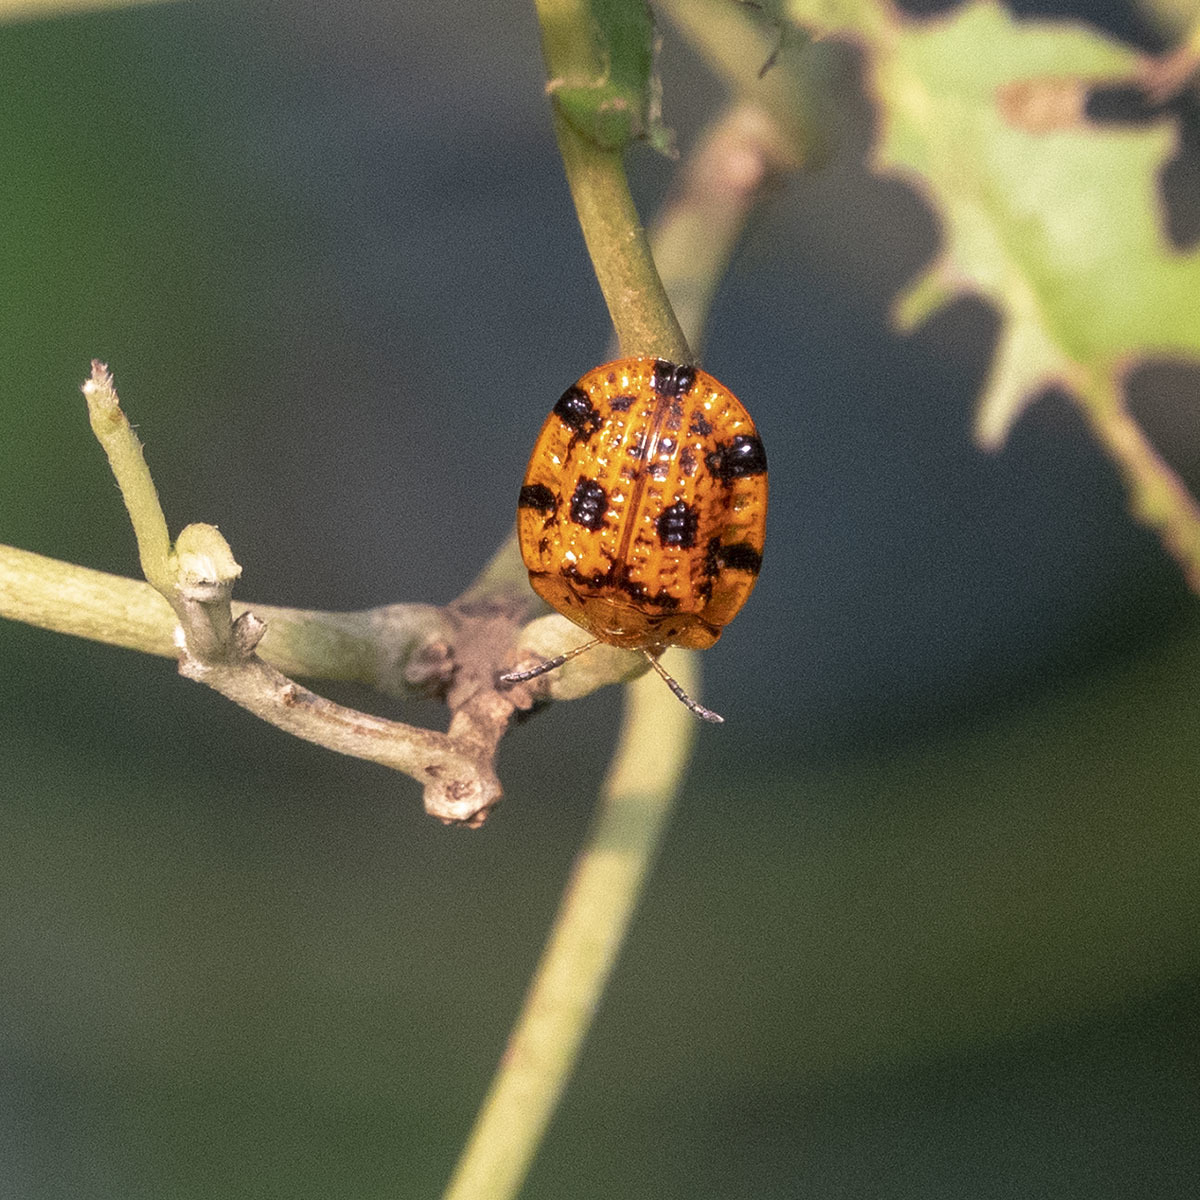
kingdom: Animalia
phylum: Arthropoda
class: Insecta
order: Coleoptera
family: Chrysomelidae
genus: Laccoptera
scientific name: Laccoptera sulcata
